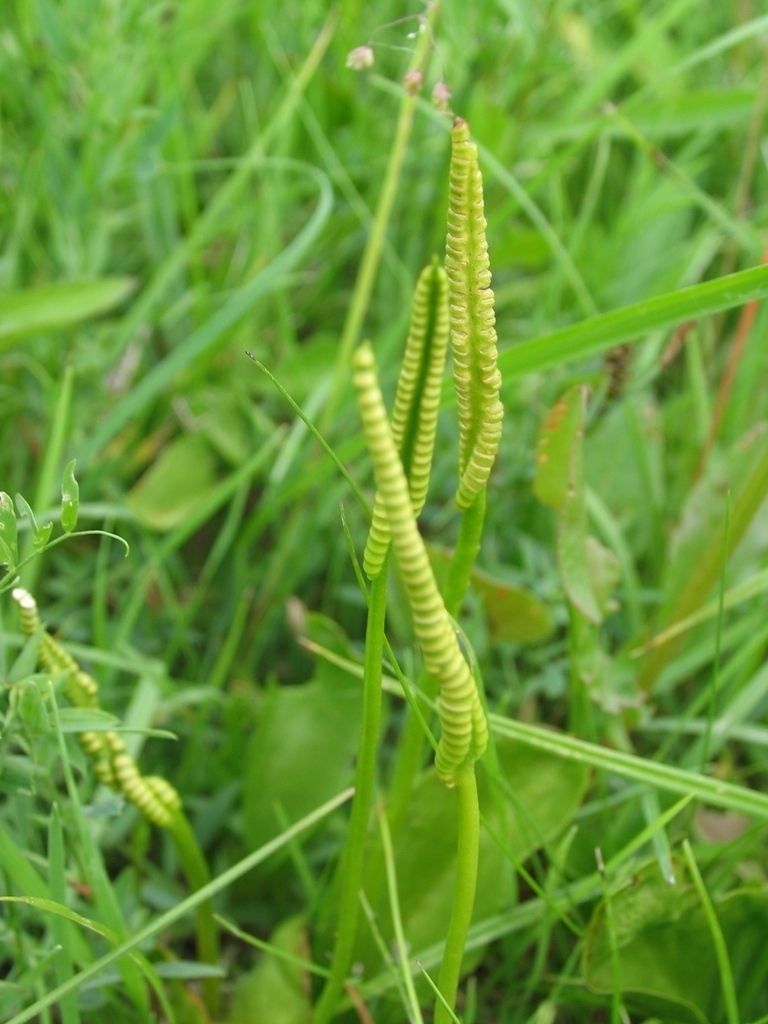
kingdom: Plantae
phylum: Tracheophyta
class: Polypodiopsida
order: Ophioglossales
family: Ophioglossaceae
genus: Ophioglossum
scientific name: Ophioglossum vulgatum
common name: Adder's-tongue
